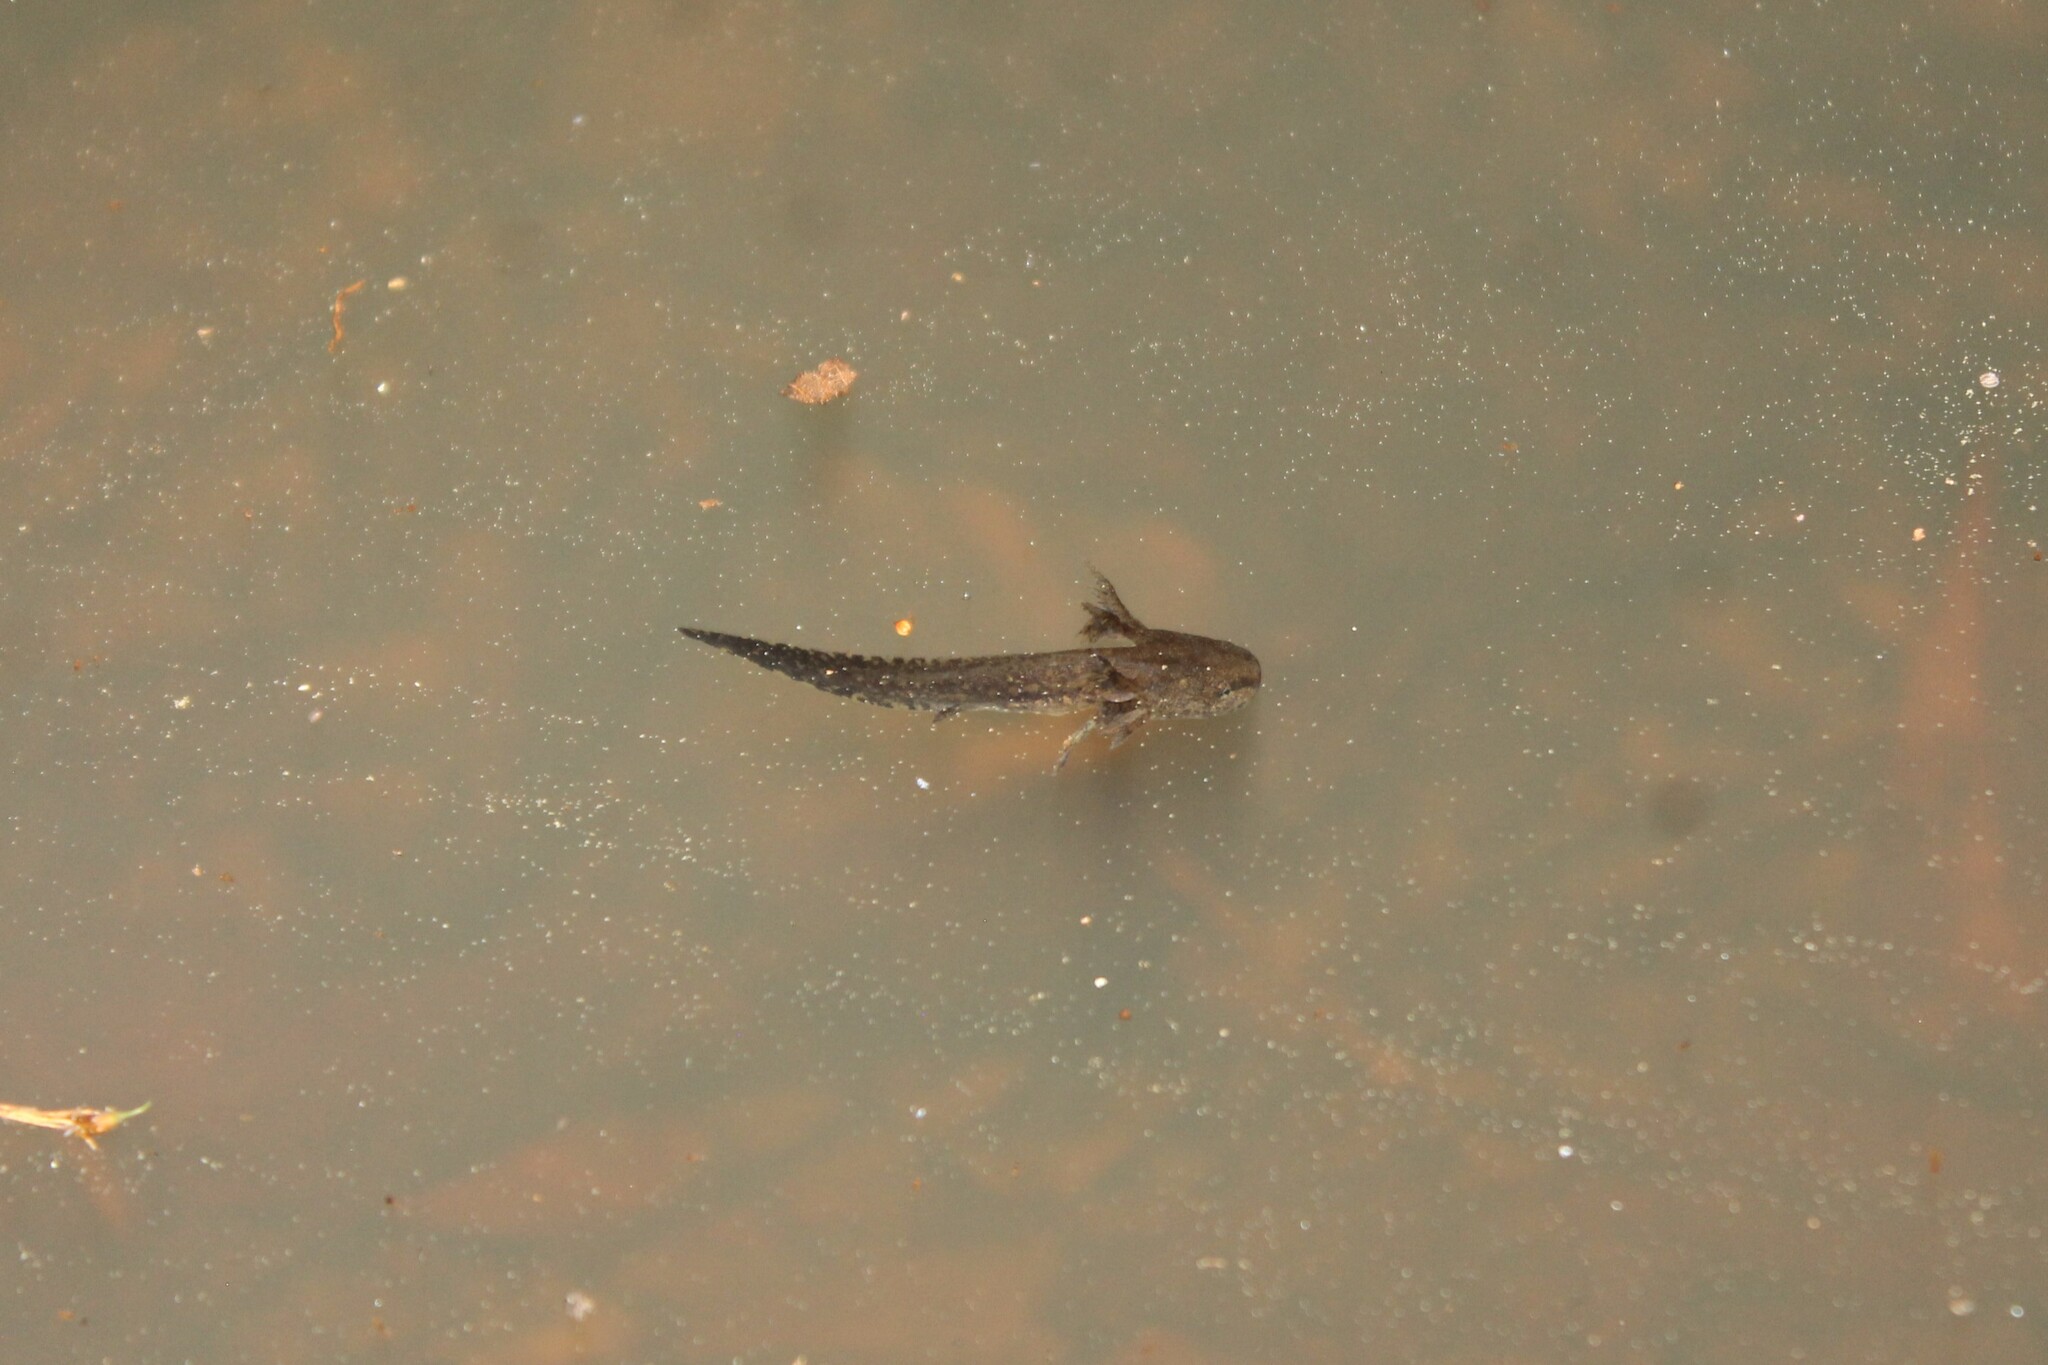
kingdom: Animalia
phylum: Chordata
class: Amphibia
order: Caudata
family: Ambystomatidae
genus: Ambystoma
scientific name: Ambystoma opacum
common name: Marbled salamander
